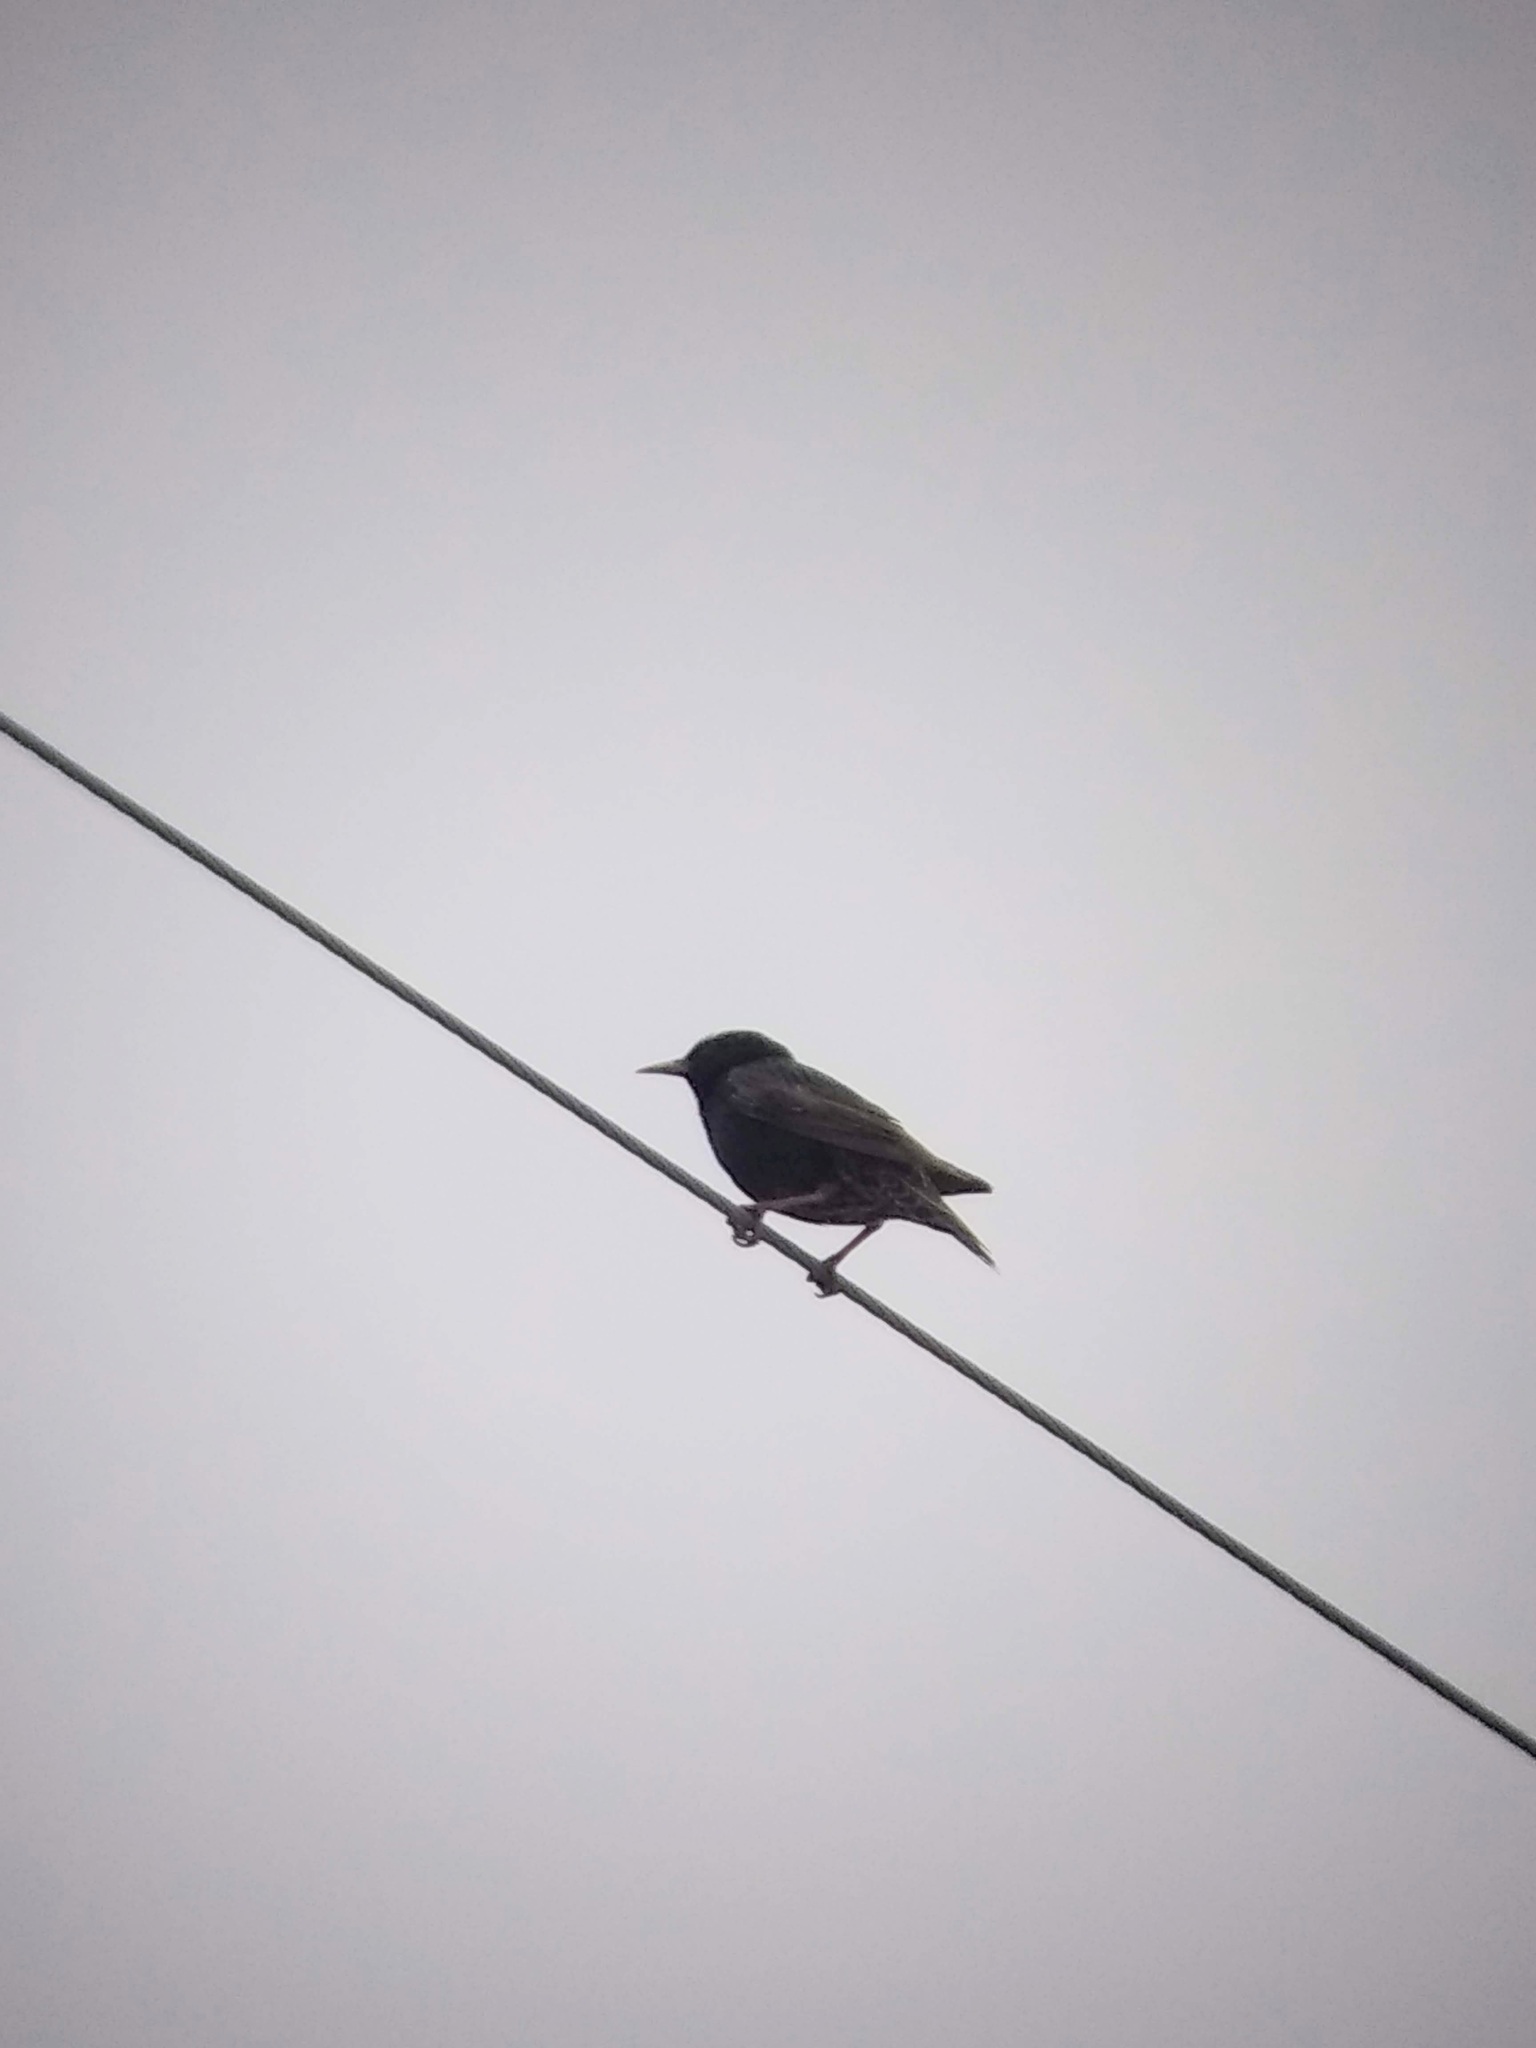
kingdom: Animalia
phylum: Chordata
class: Aves
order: Passeriformes
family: Sturnidae
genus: Sturnus
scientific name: Sturnus vulgaris
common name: Common starling
